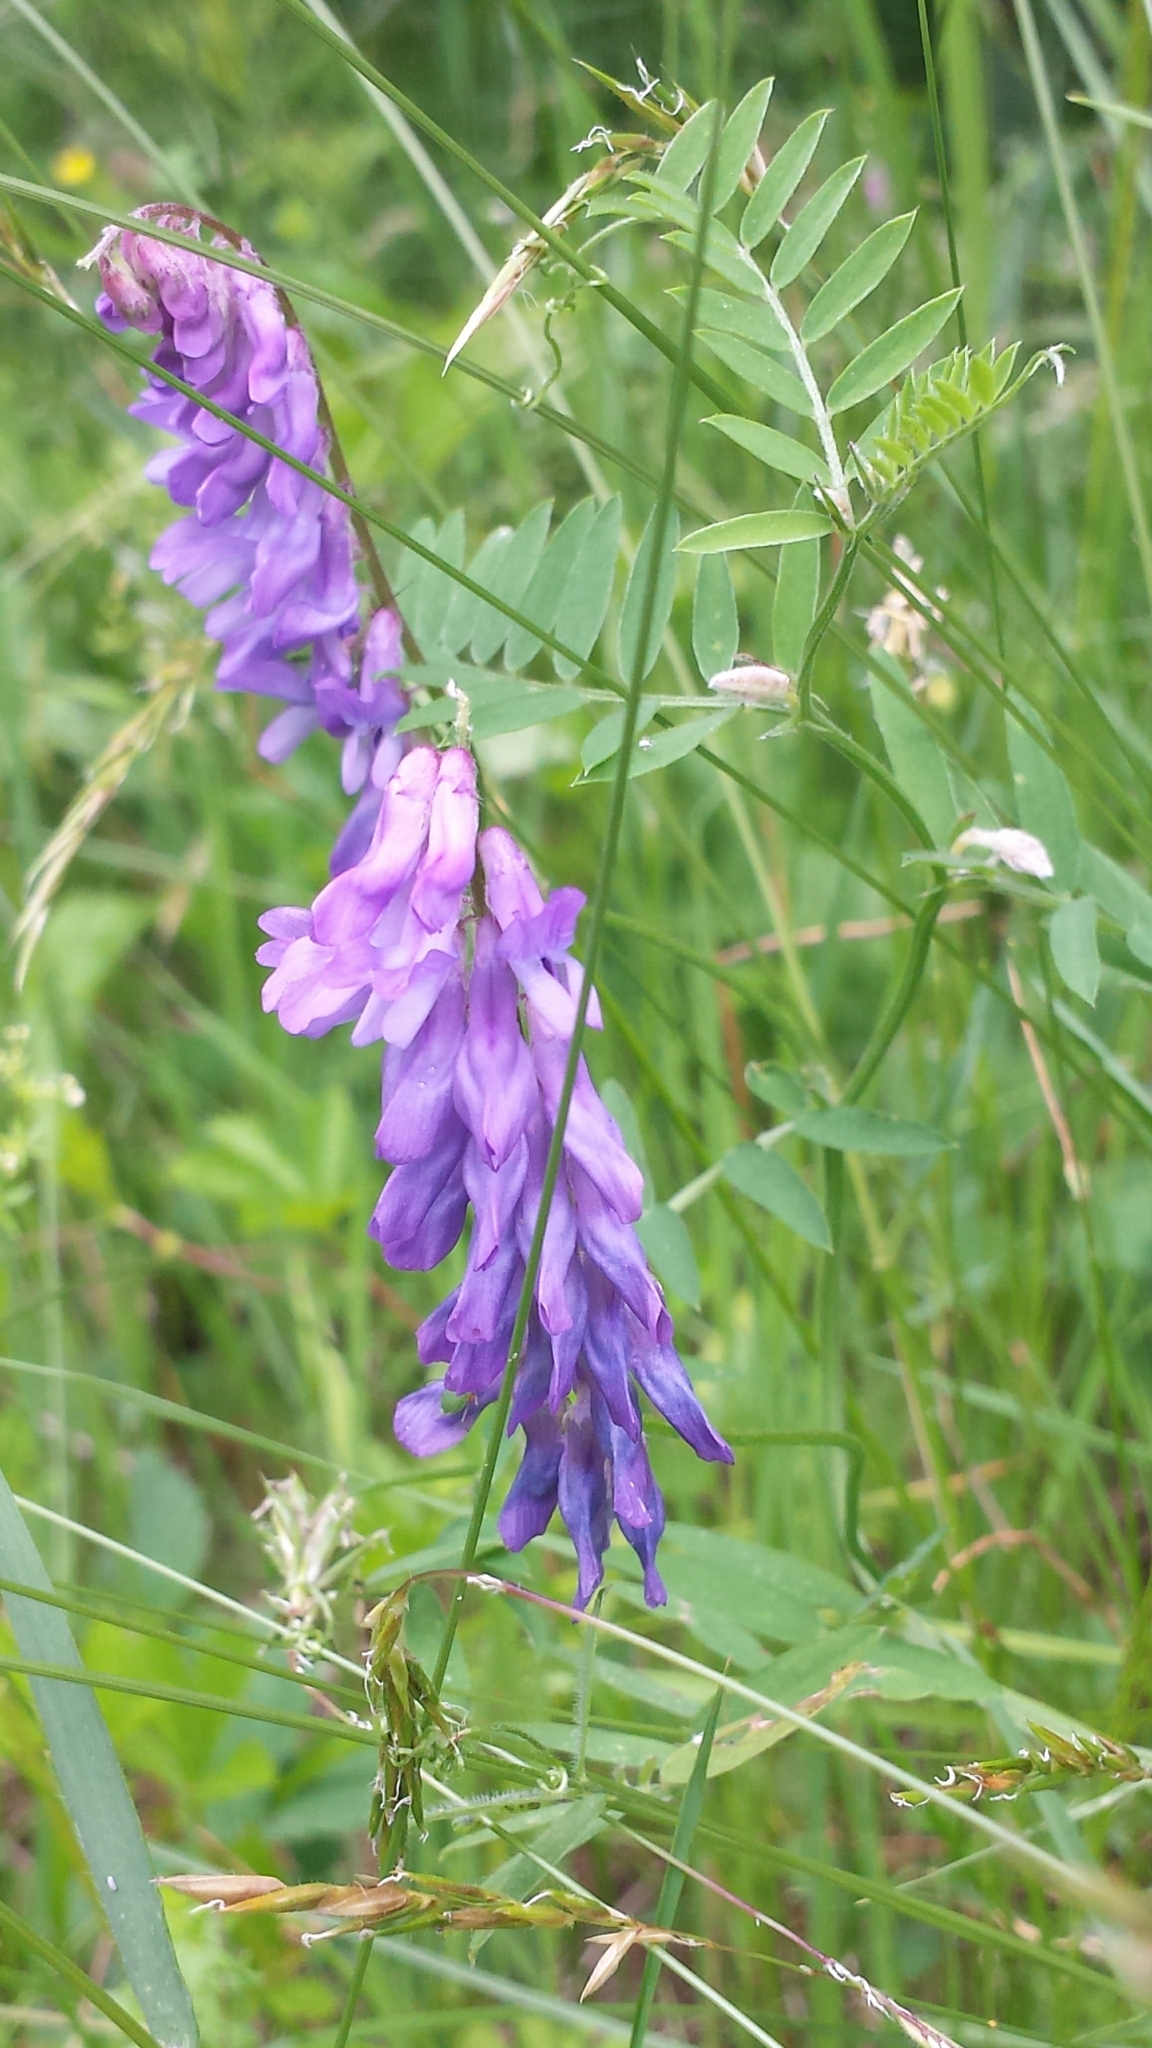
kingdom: Plantae
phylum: Tracheophyta
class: Magnoliopsida
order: Fabales
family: Fabaceae
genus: Vicia
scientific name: Vicia cracca
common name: Bird vetch
